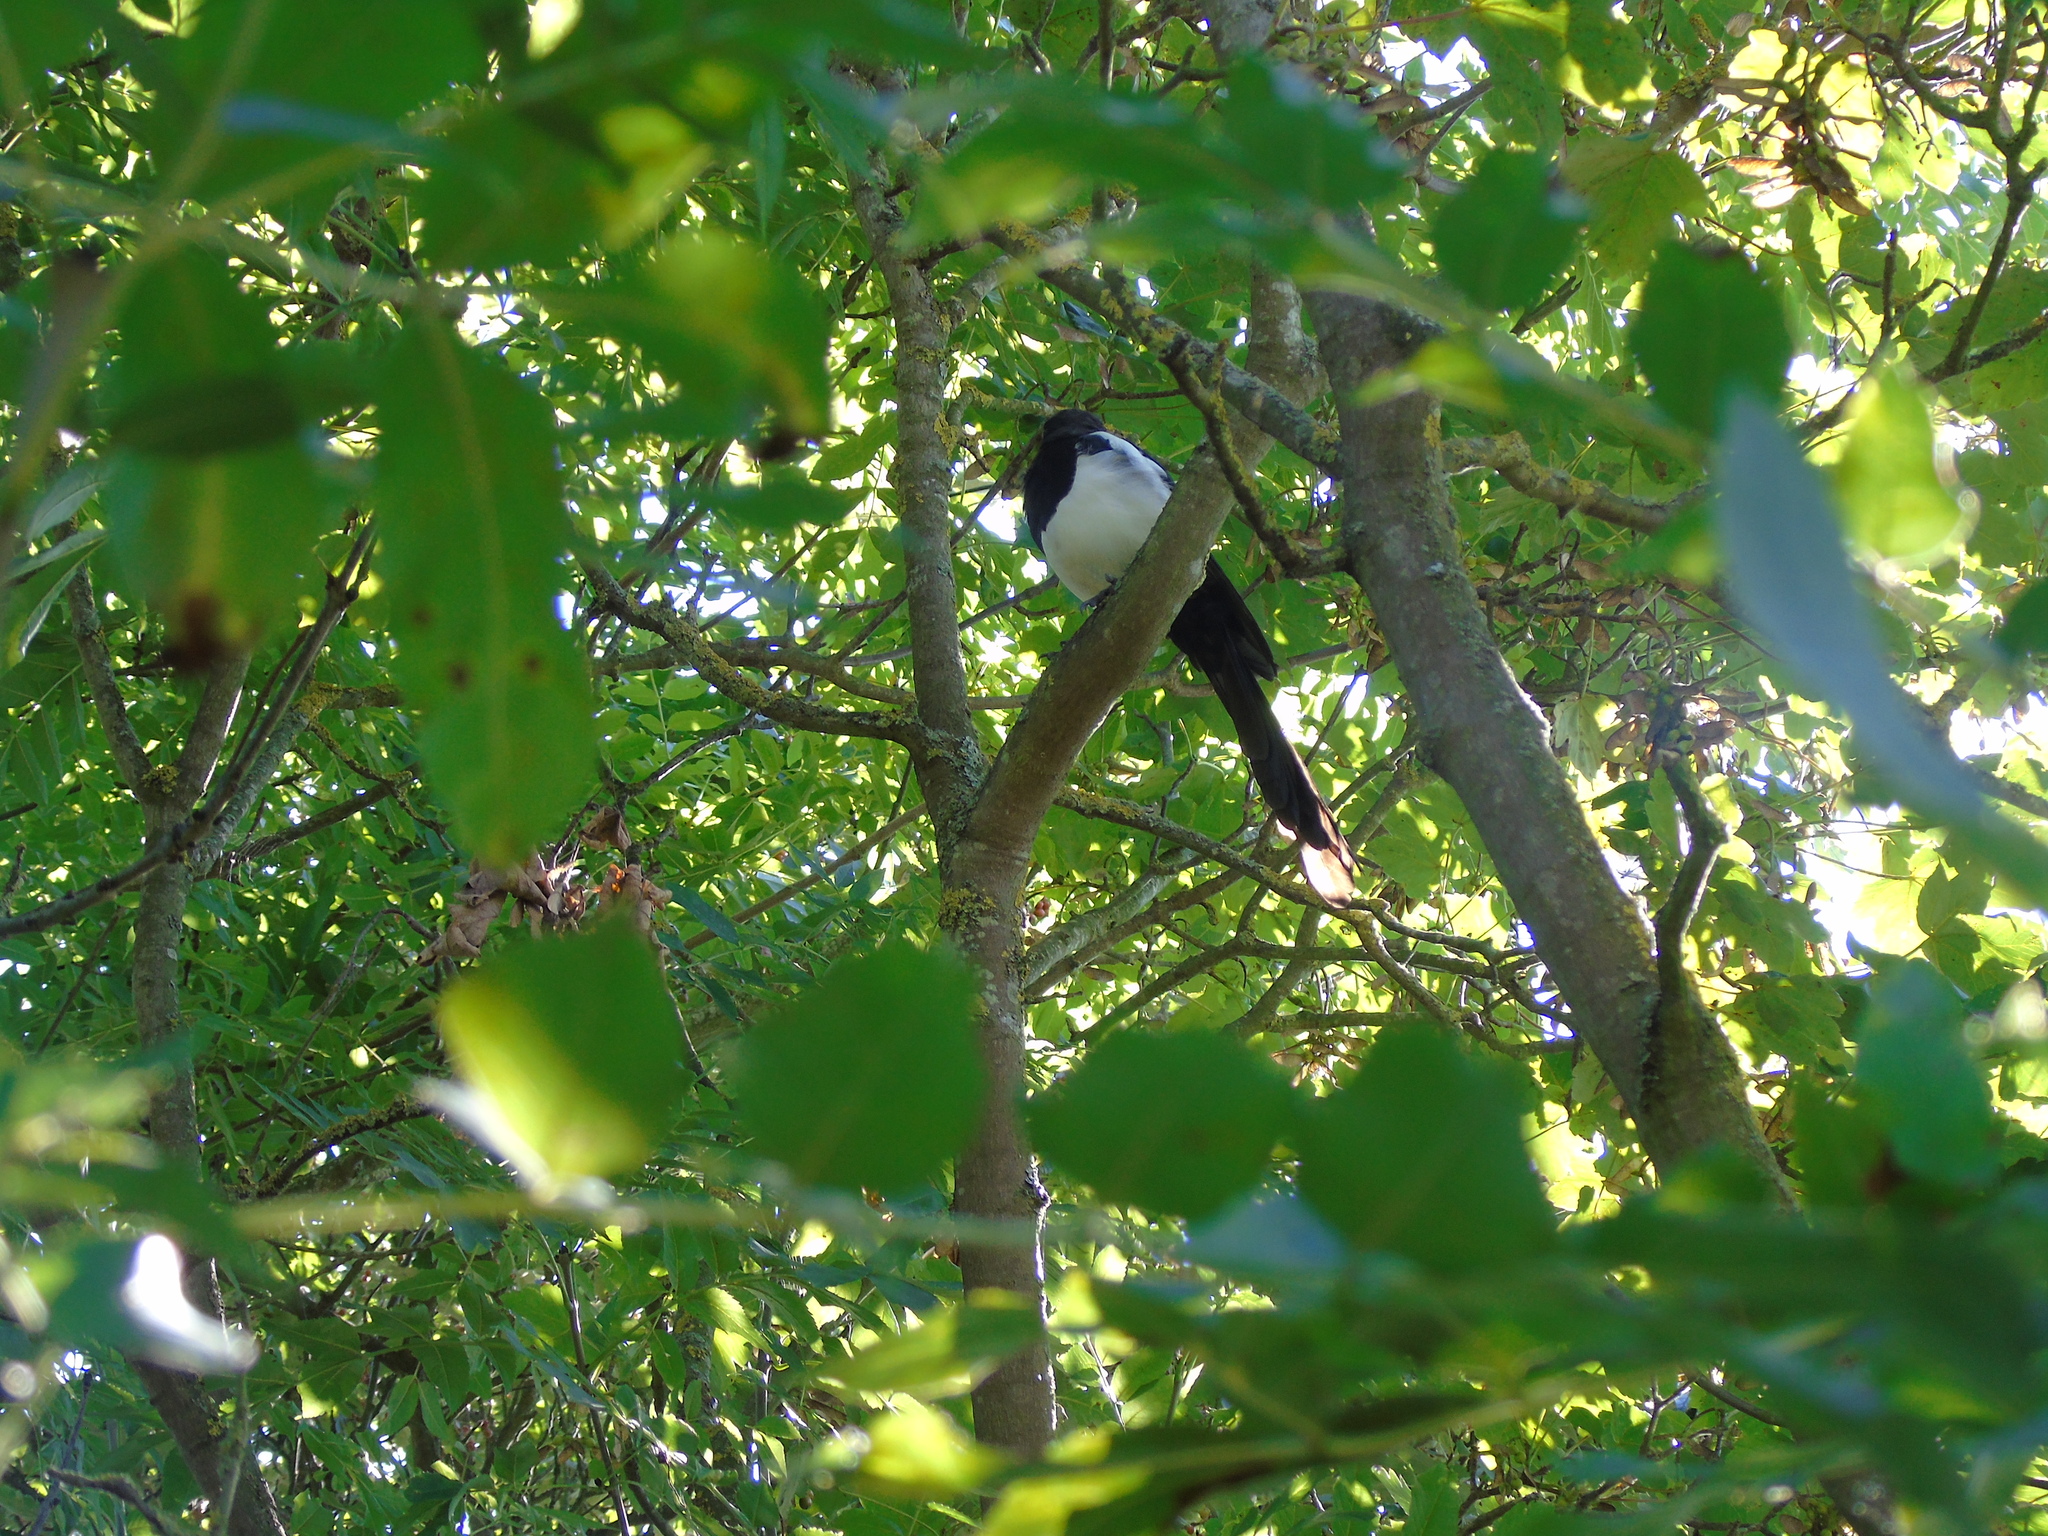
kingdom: Animalia
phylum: Chordata
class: Aves
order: Passeriformes
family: Corvidae
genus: Pica
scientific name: Pica pica
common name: Eurasian magpie
